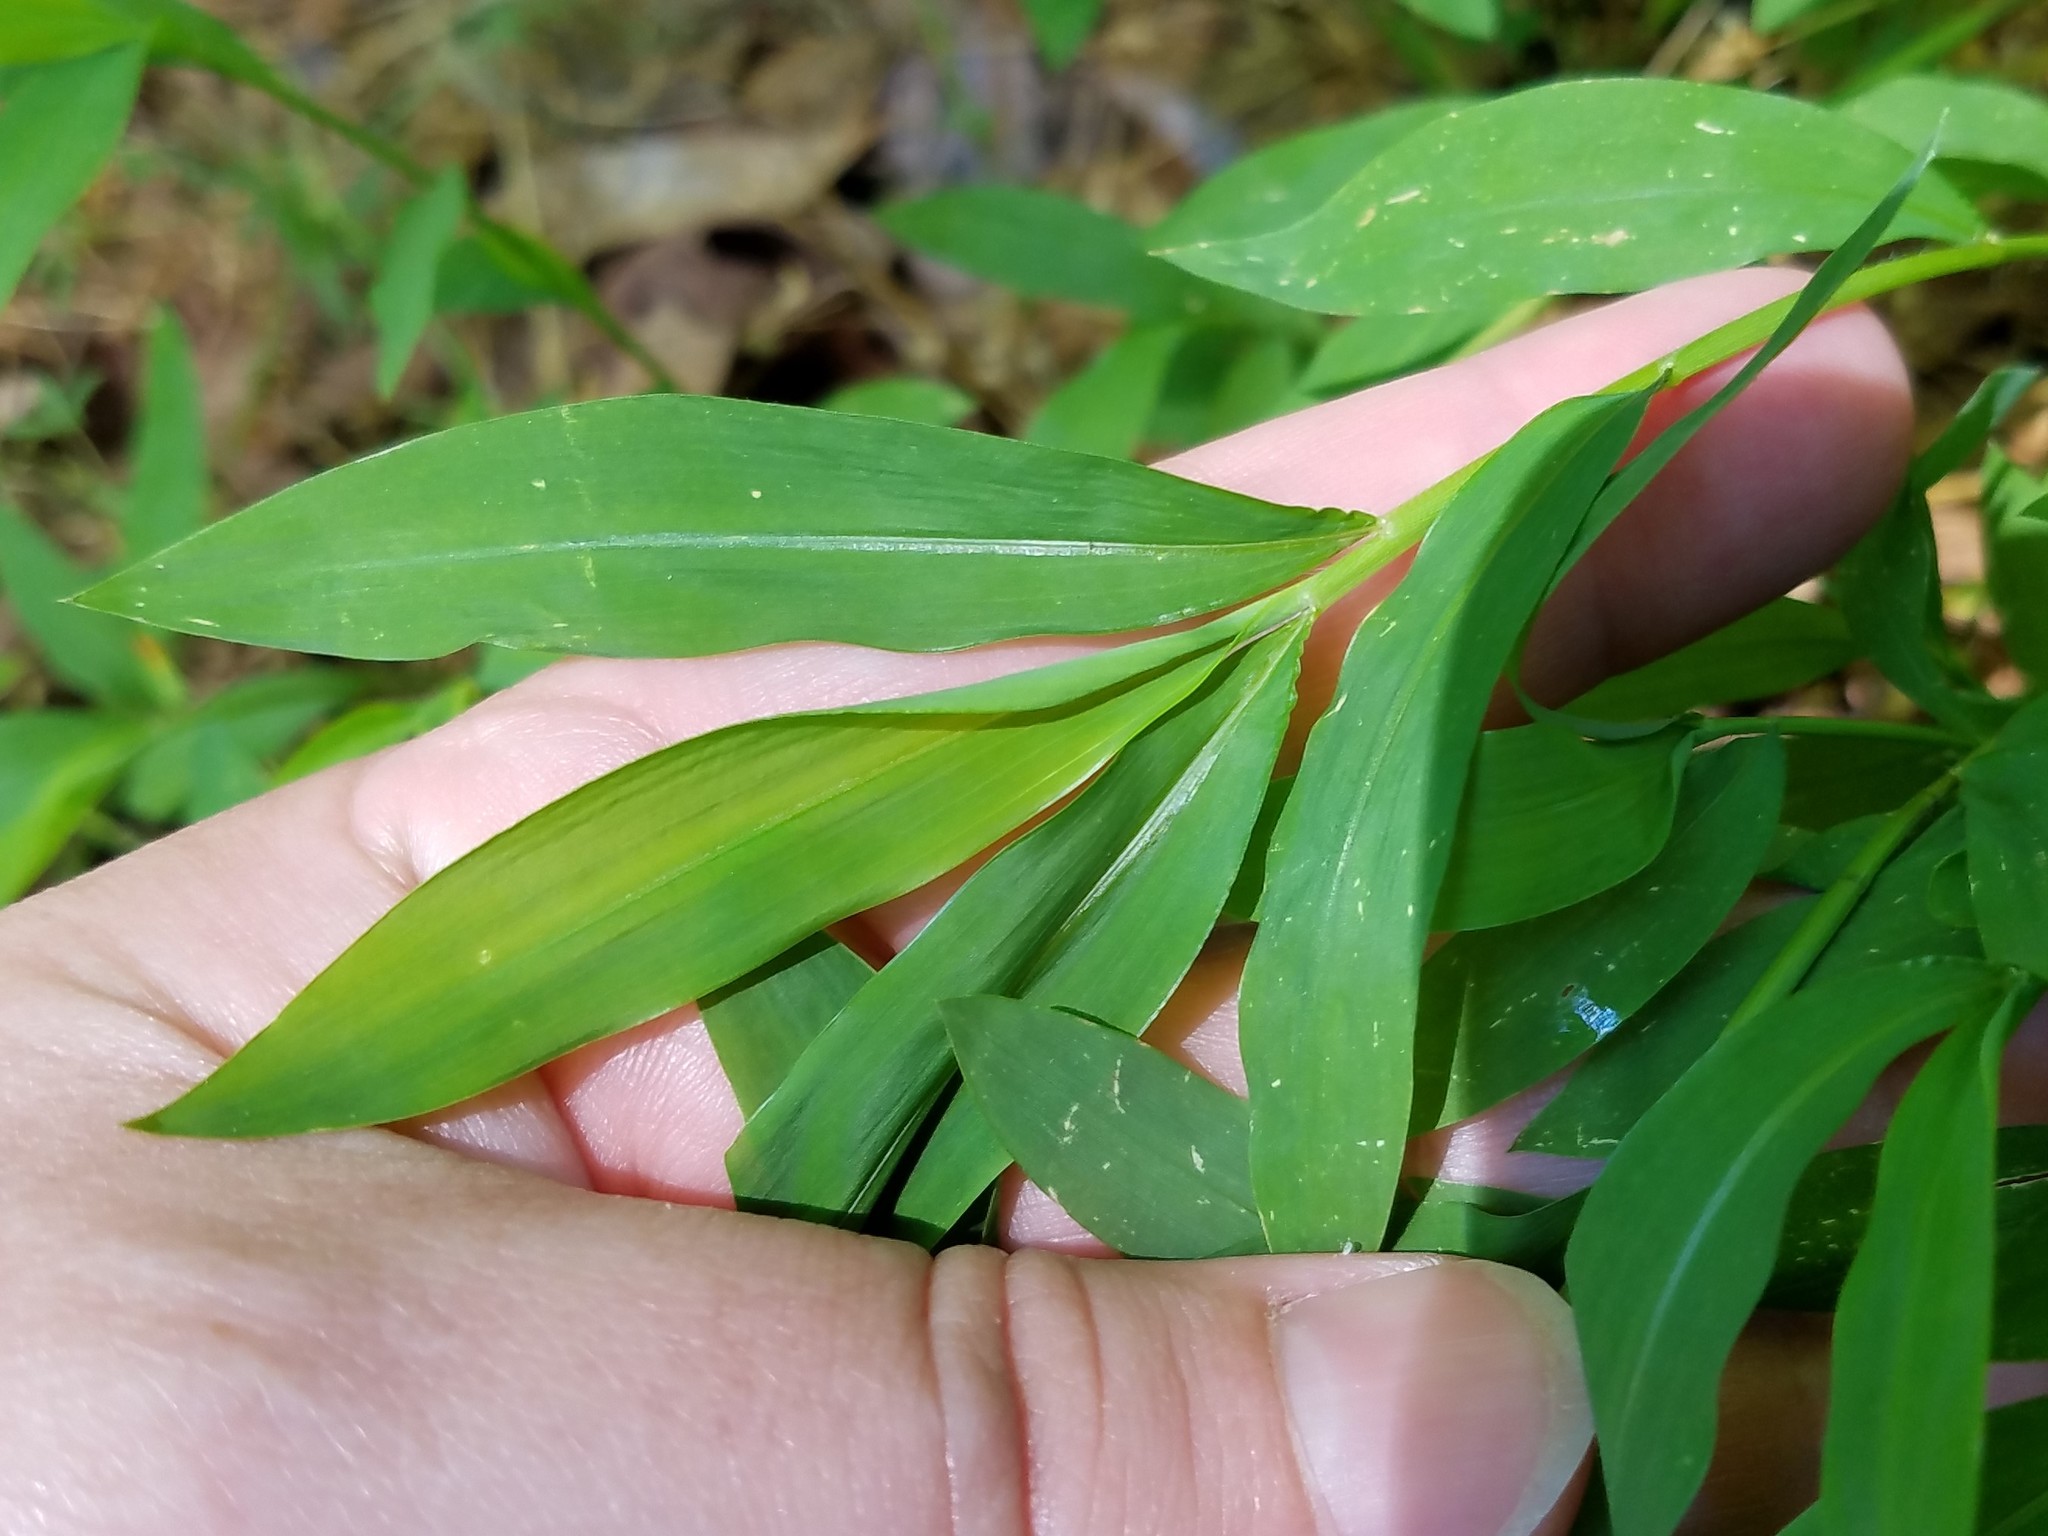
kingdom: Plantae
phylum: Tracheophyta
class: Liliopsida
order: Poales
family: Poaceae
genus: Microstegium
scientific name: Microstegium vimineum
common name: Japanese stiltgrass
